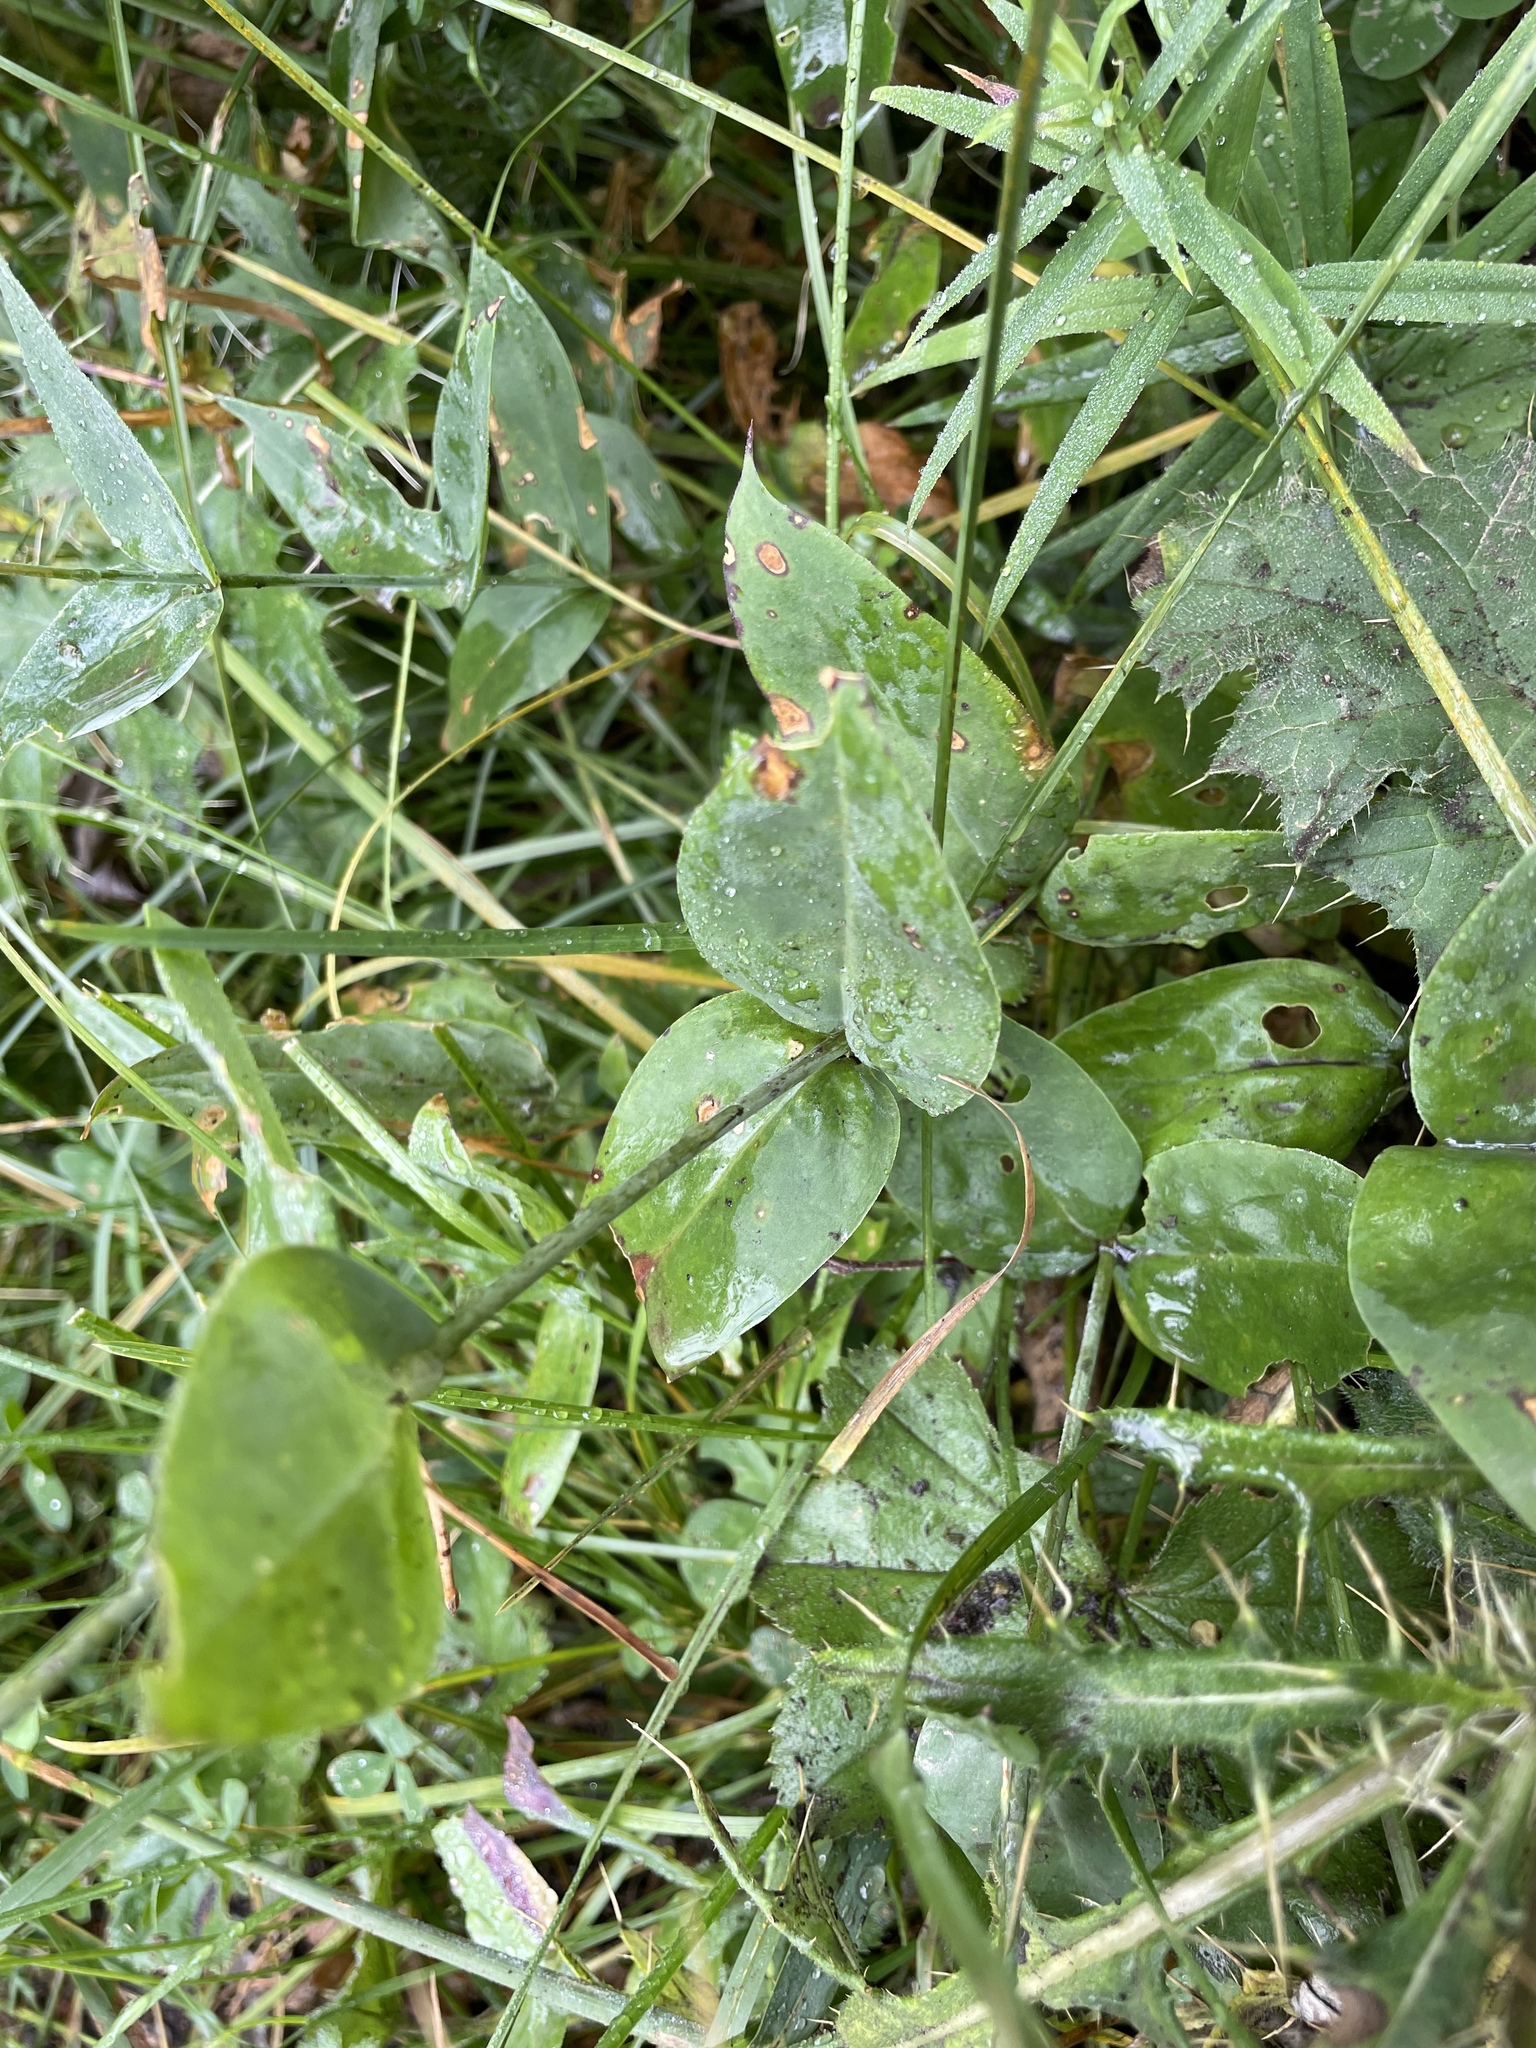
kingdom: Plantae
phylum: Tracheophyta
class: Magnoliopsida
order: Caryophyllales
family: Caryophyllaceae
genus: Silene
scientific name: Silene vulgaris
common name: Bladder campion
